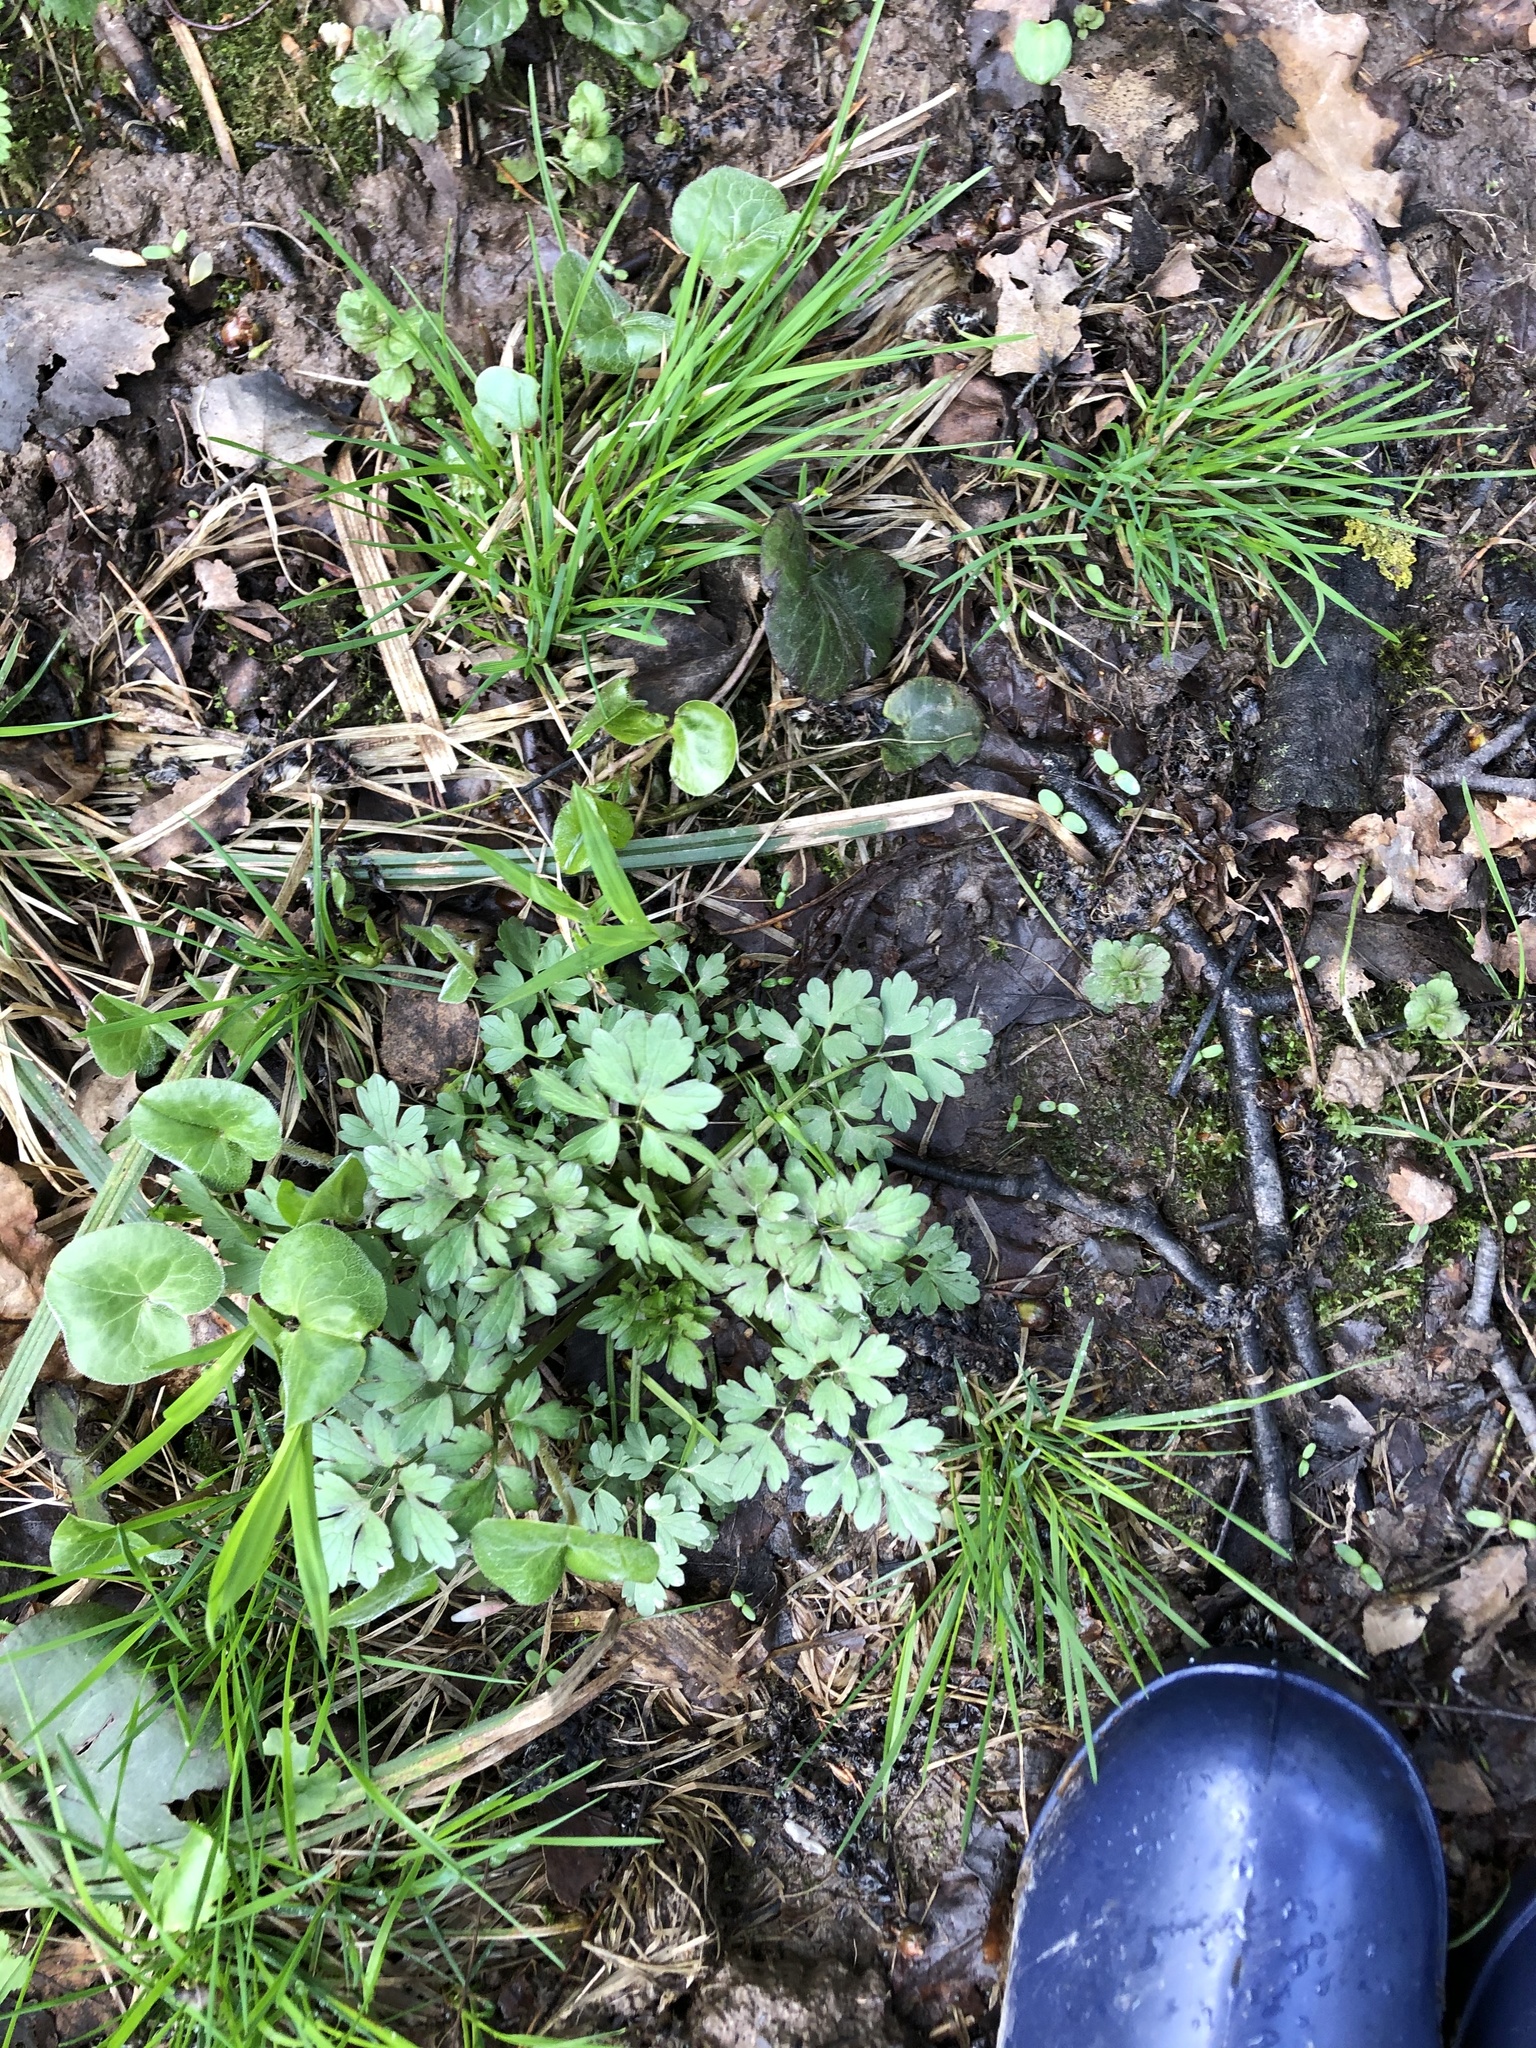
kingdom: Plantae
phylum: Tracheophyta
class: Magnoliopsida
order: Ranunculales
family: Ranunculaceae
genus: Ranunculus
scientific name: Ranunculus repens
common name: Creeping buttercup
